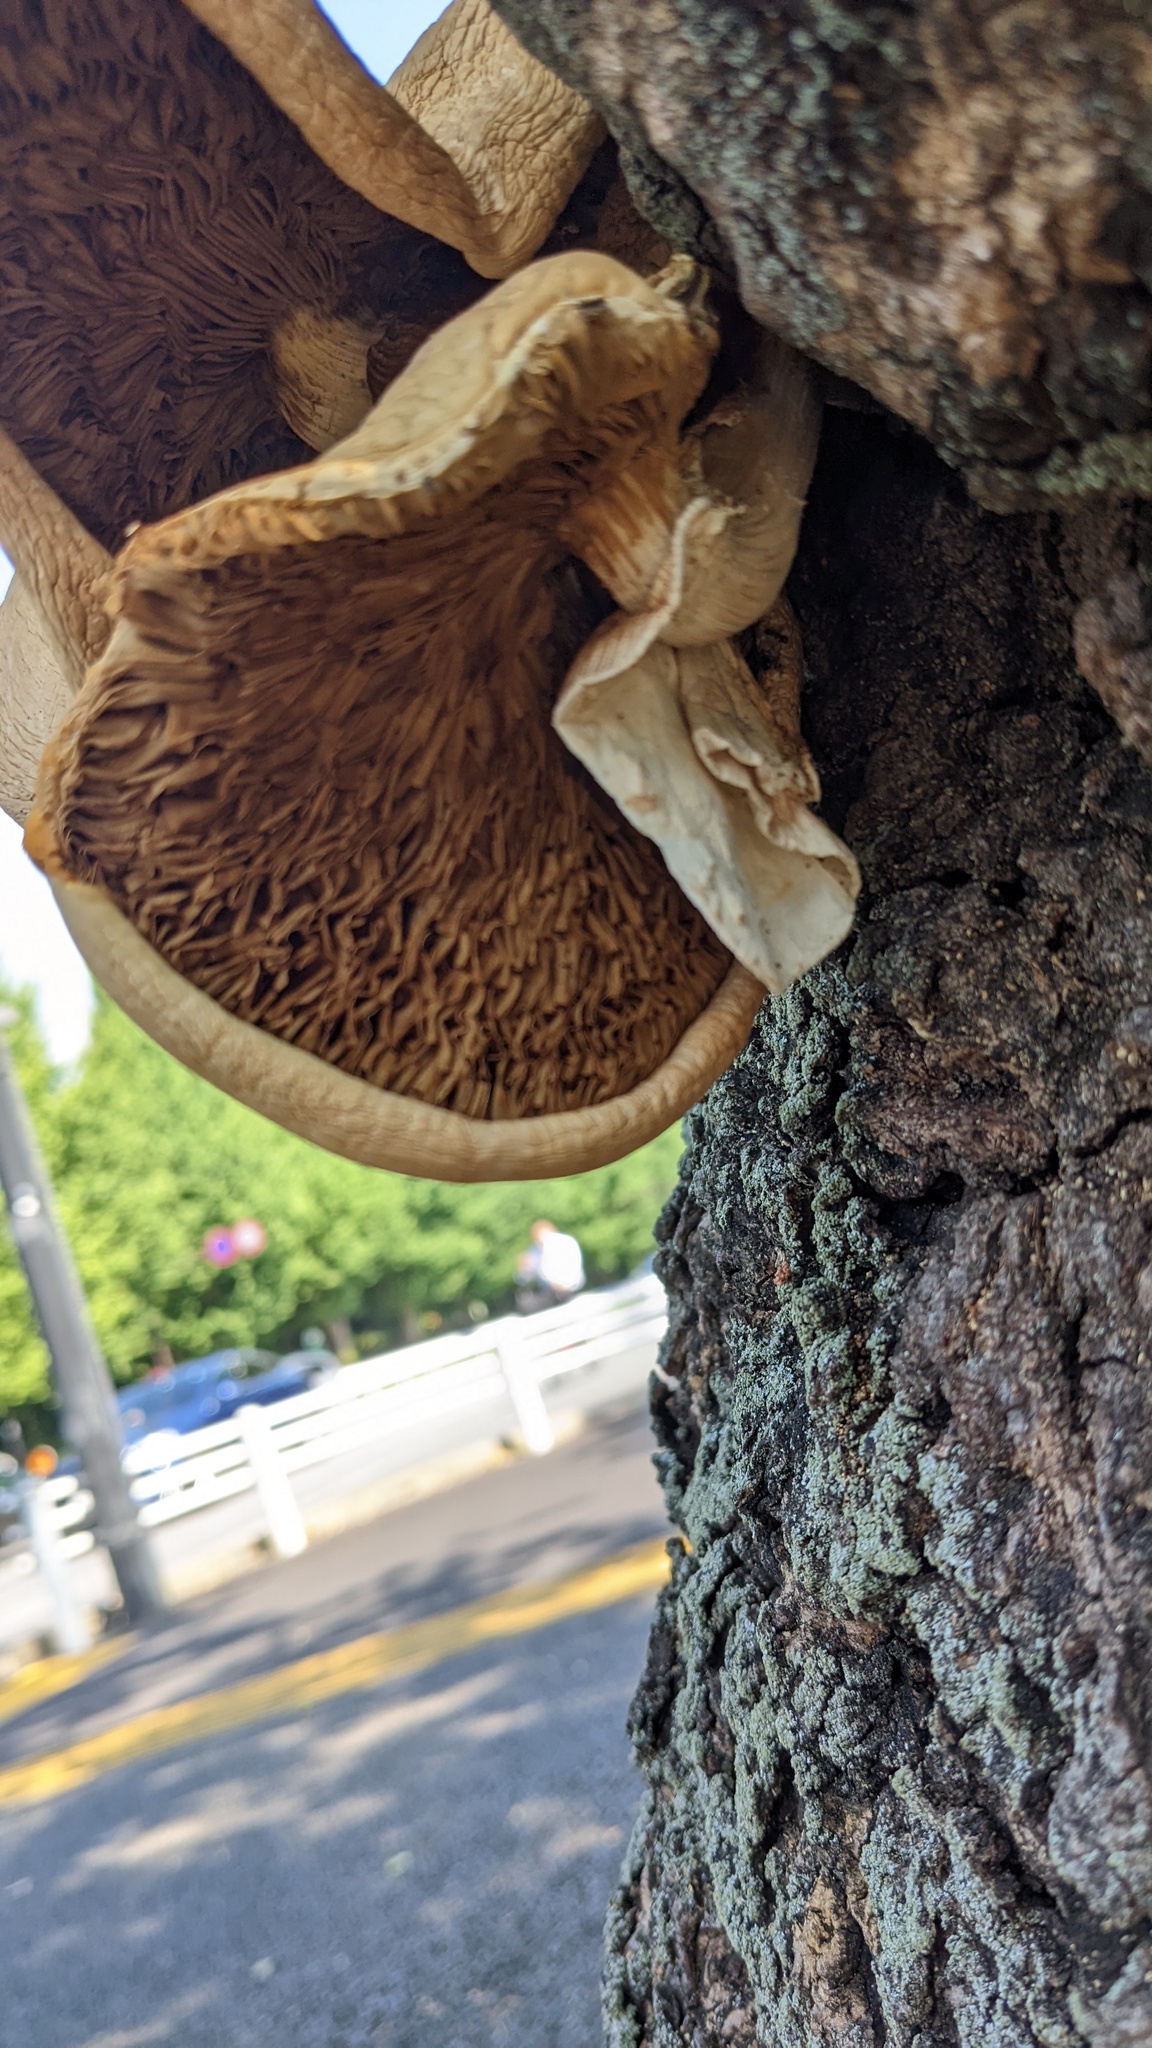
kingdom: Fungi
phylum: Basidiomycota
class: Agaricomycetes
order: Agaricales
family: Tubariaceae
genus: Cyclocybe
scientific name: Cyclocybe cylindracea
